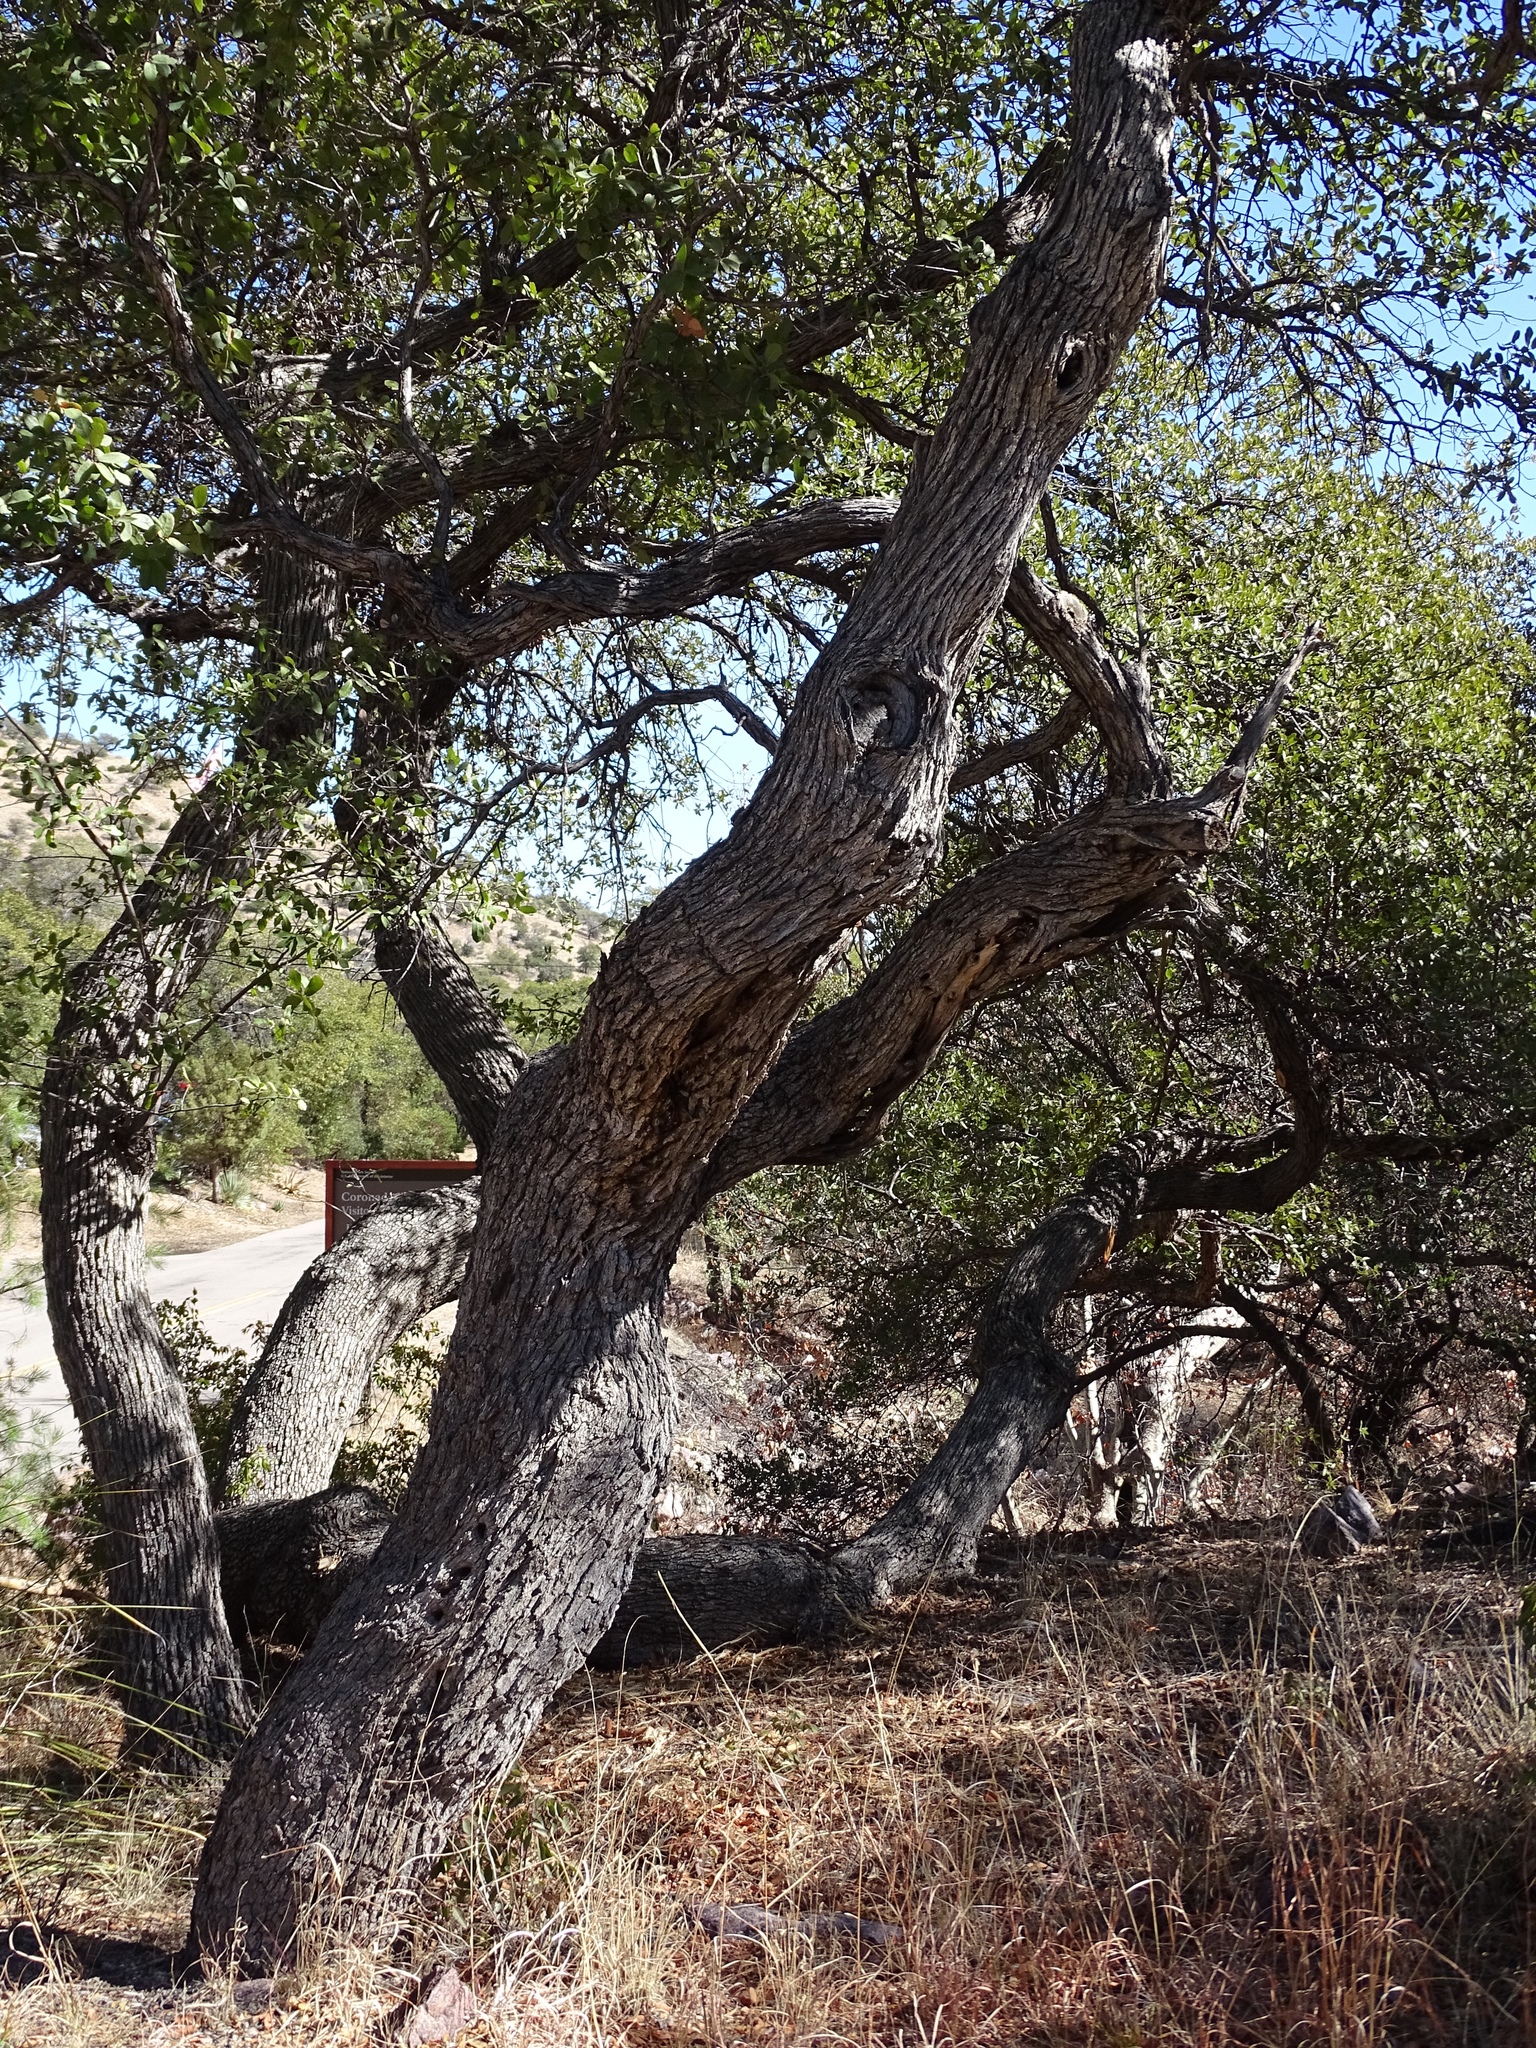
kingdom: Plantae
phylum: Tracheophyta
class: Magnoliopsida
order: Fagales
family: Fagaceae
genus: Quercus
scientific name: Quercus arizonica
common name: Arizona white oak
